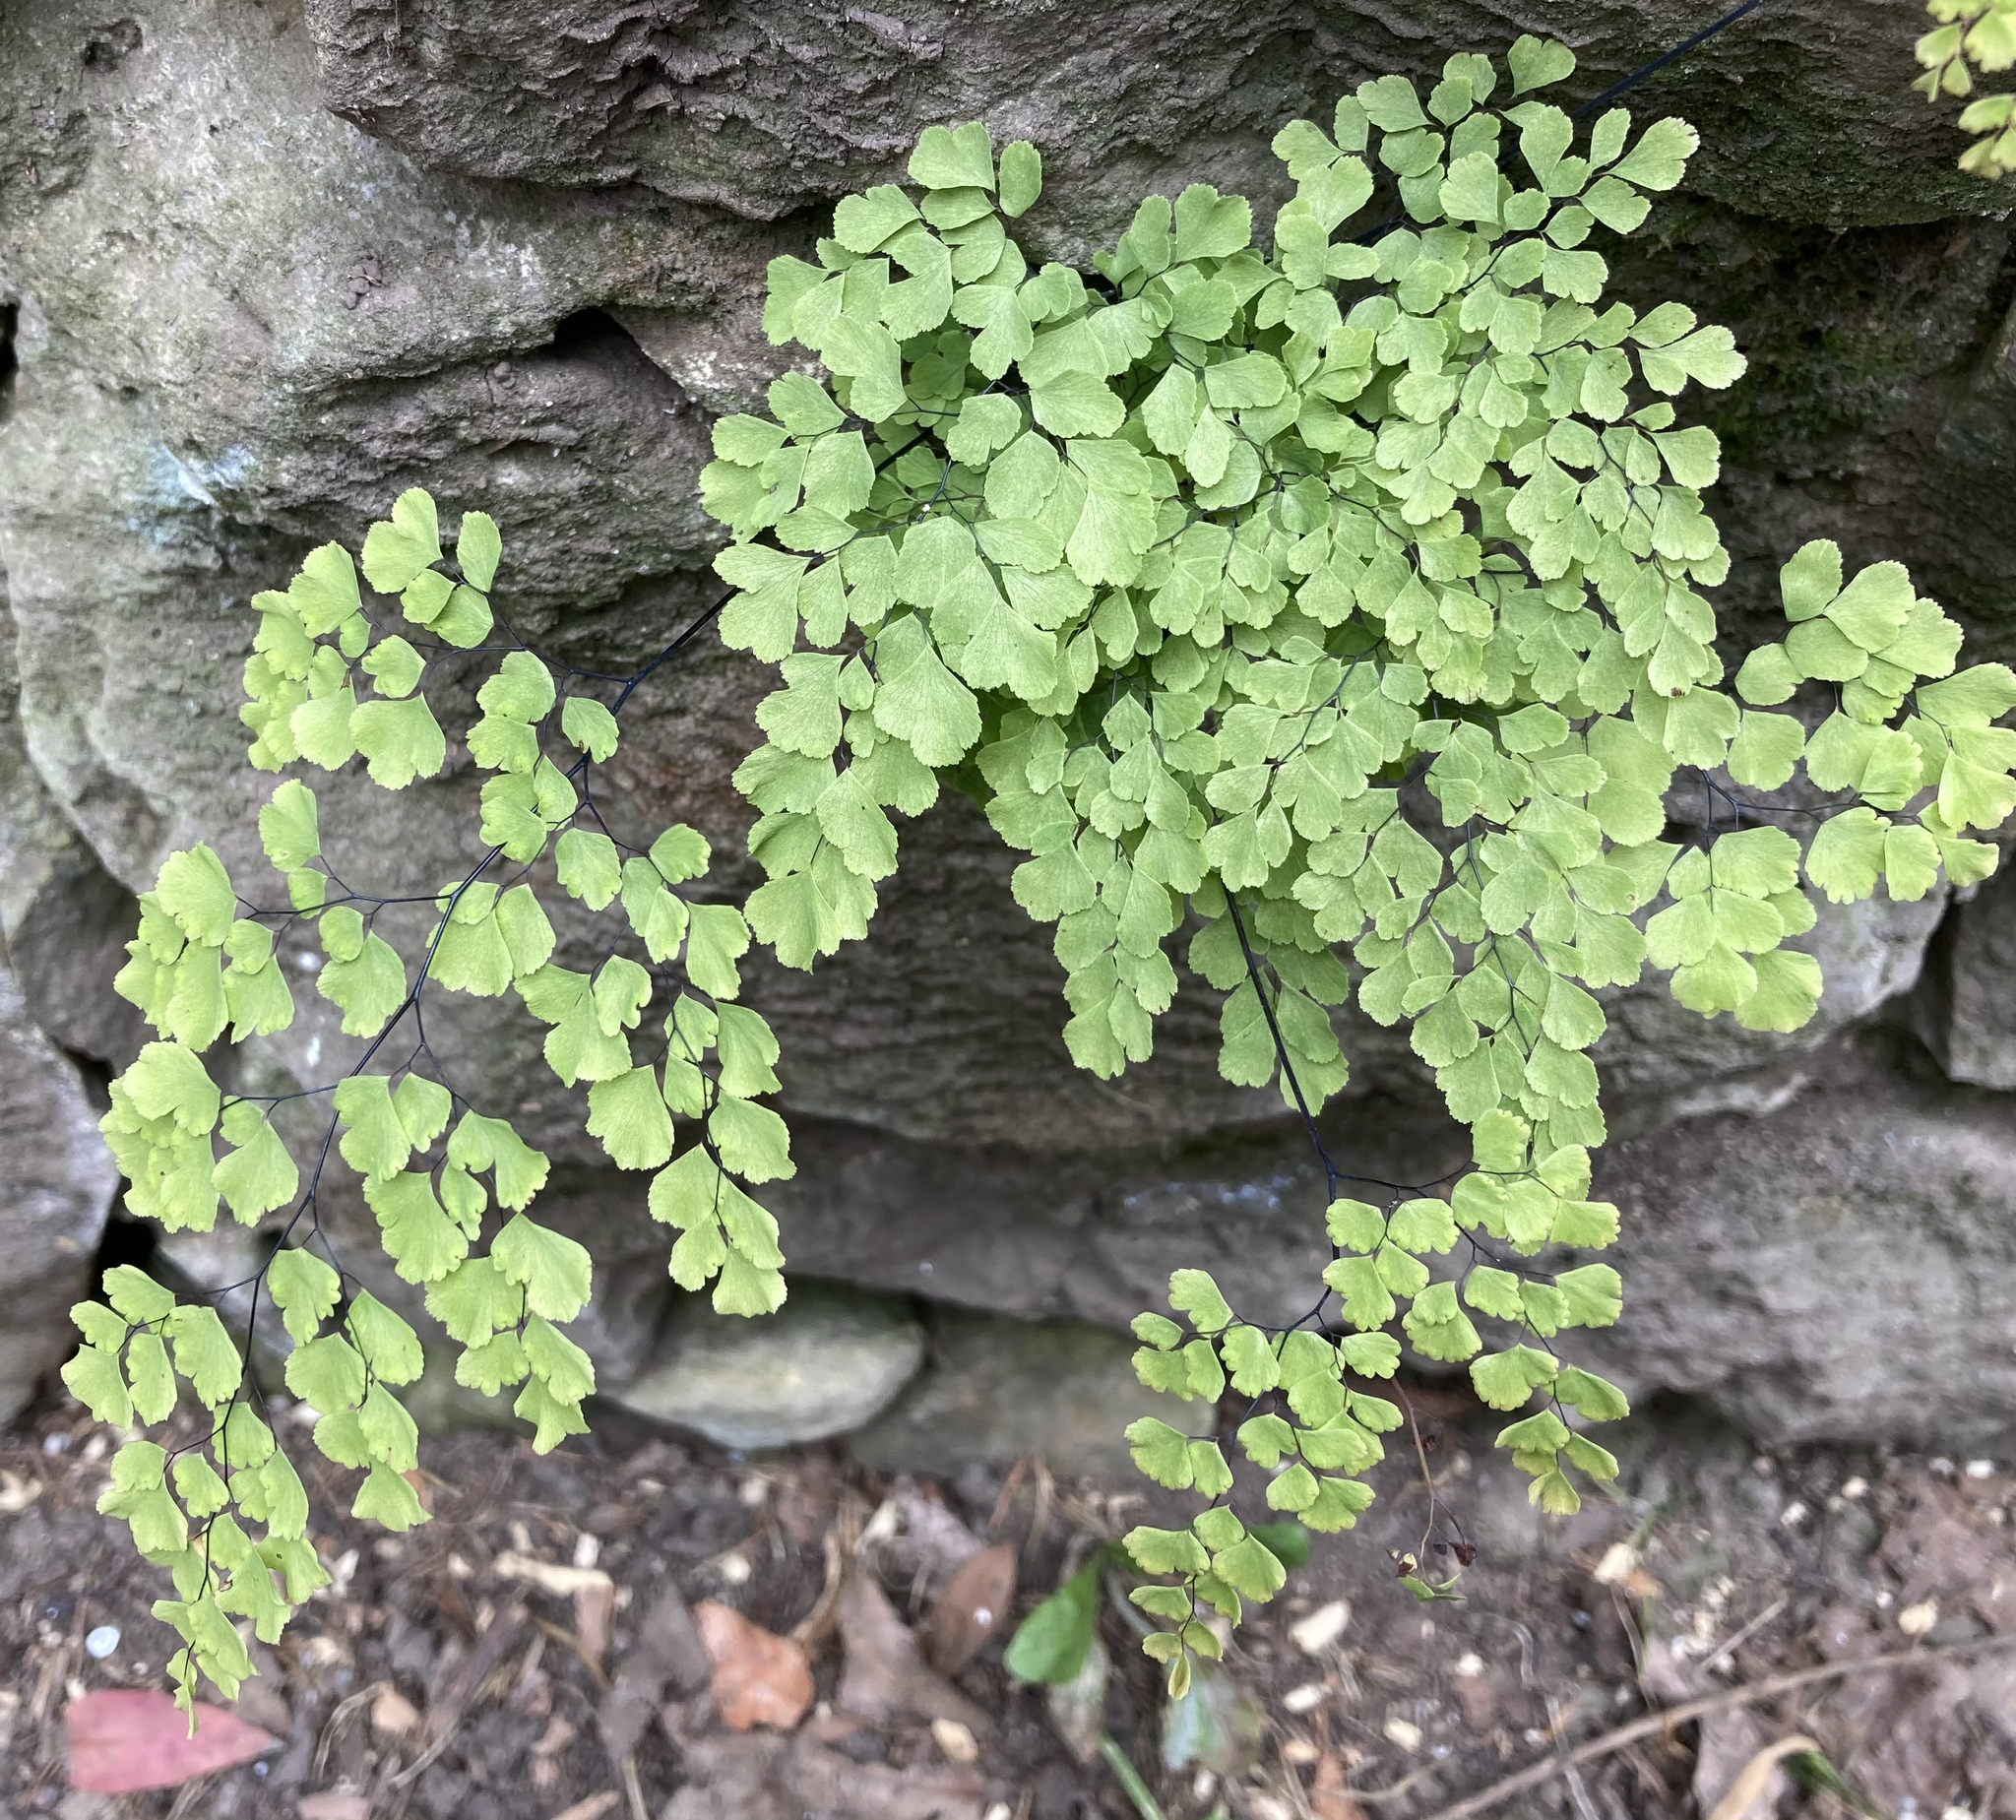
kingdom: Plantae
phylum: Tracheophyta
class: Polypodiopsida
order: Polypodiales
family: Pteridaceae
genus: Adiantum
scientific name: Adiantum raddianum
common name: Delta maidenhair fern
